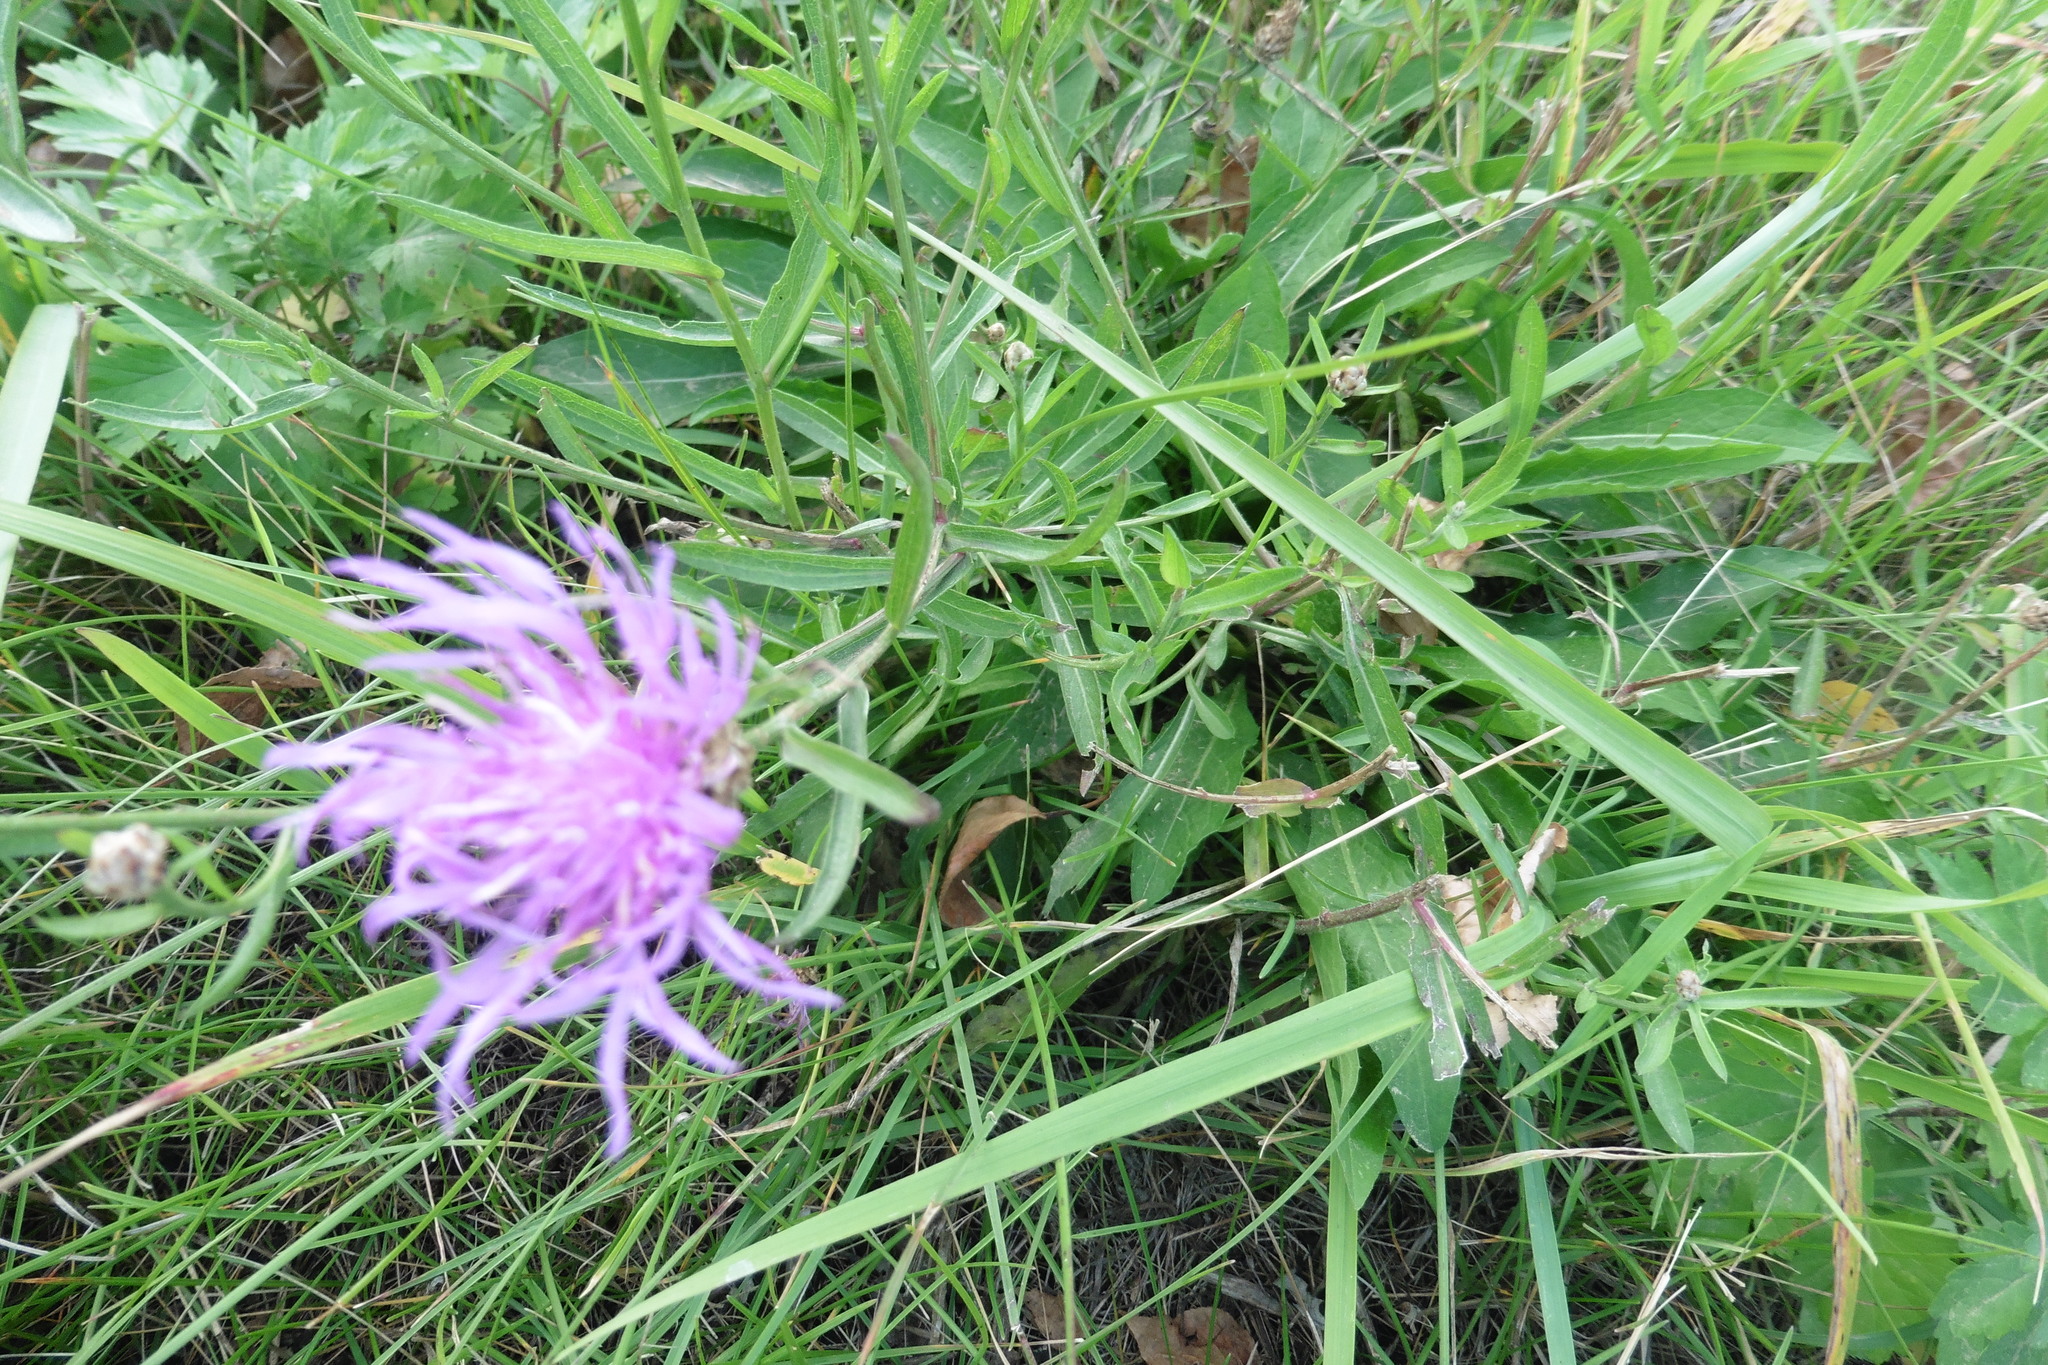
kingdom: Plantae
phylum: Tracheophyta
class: Magnoliopsida
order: Asterales
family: Asteraceae
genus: Centaurea
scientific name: Centaurea jacea
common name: Brown knapweed
